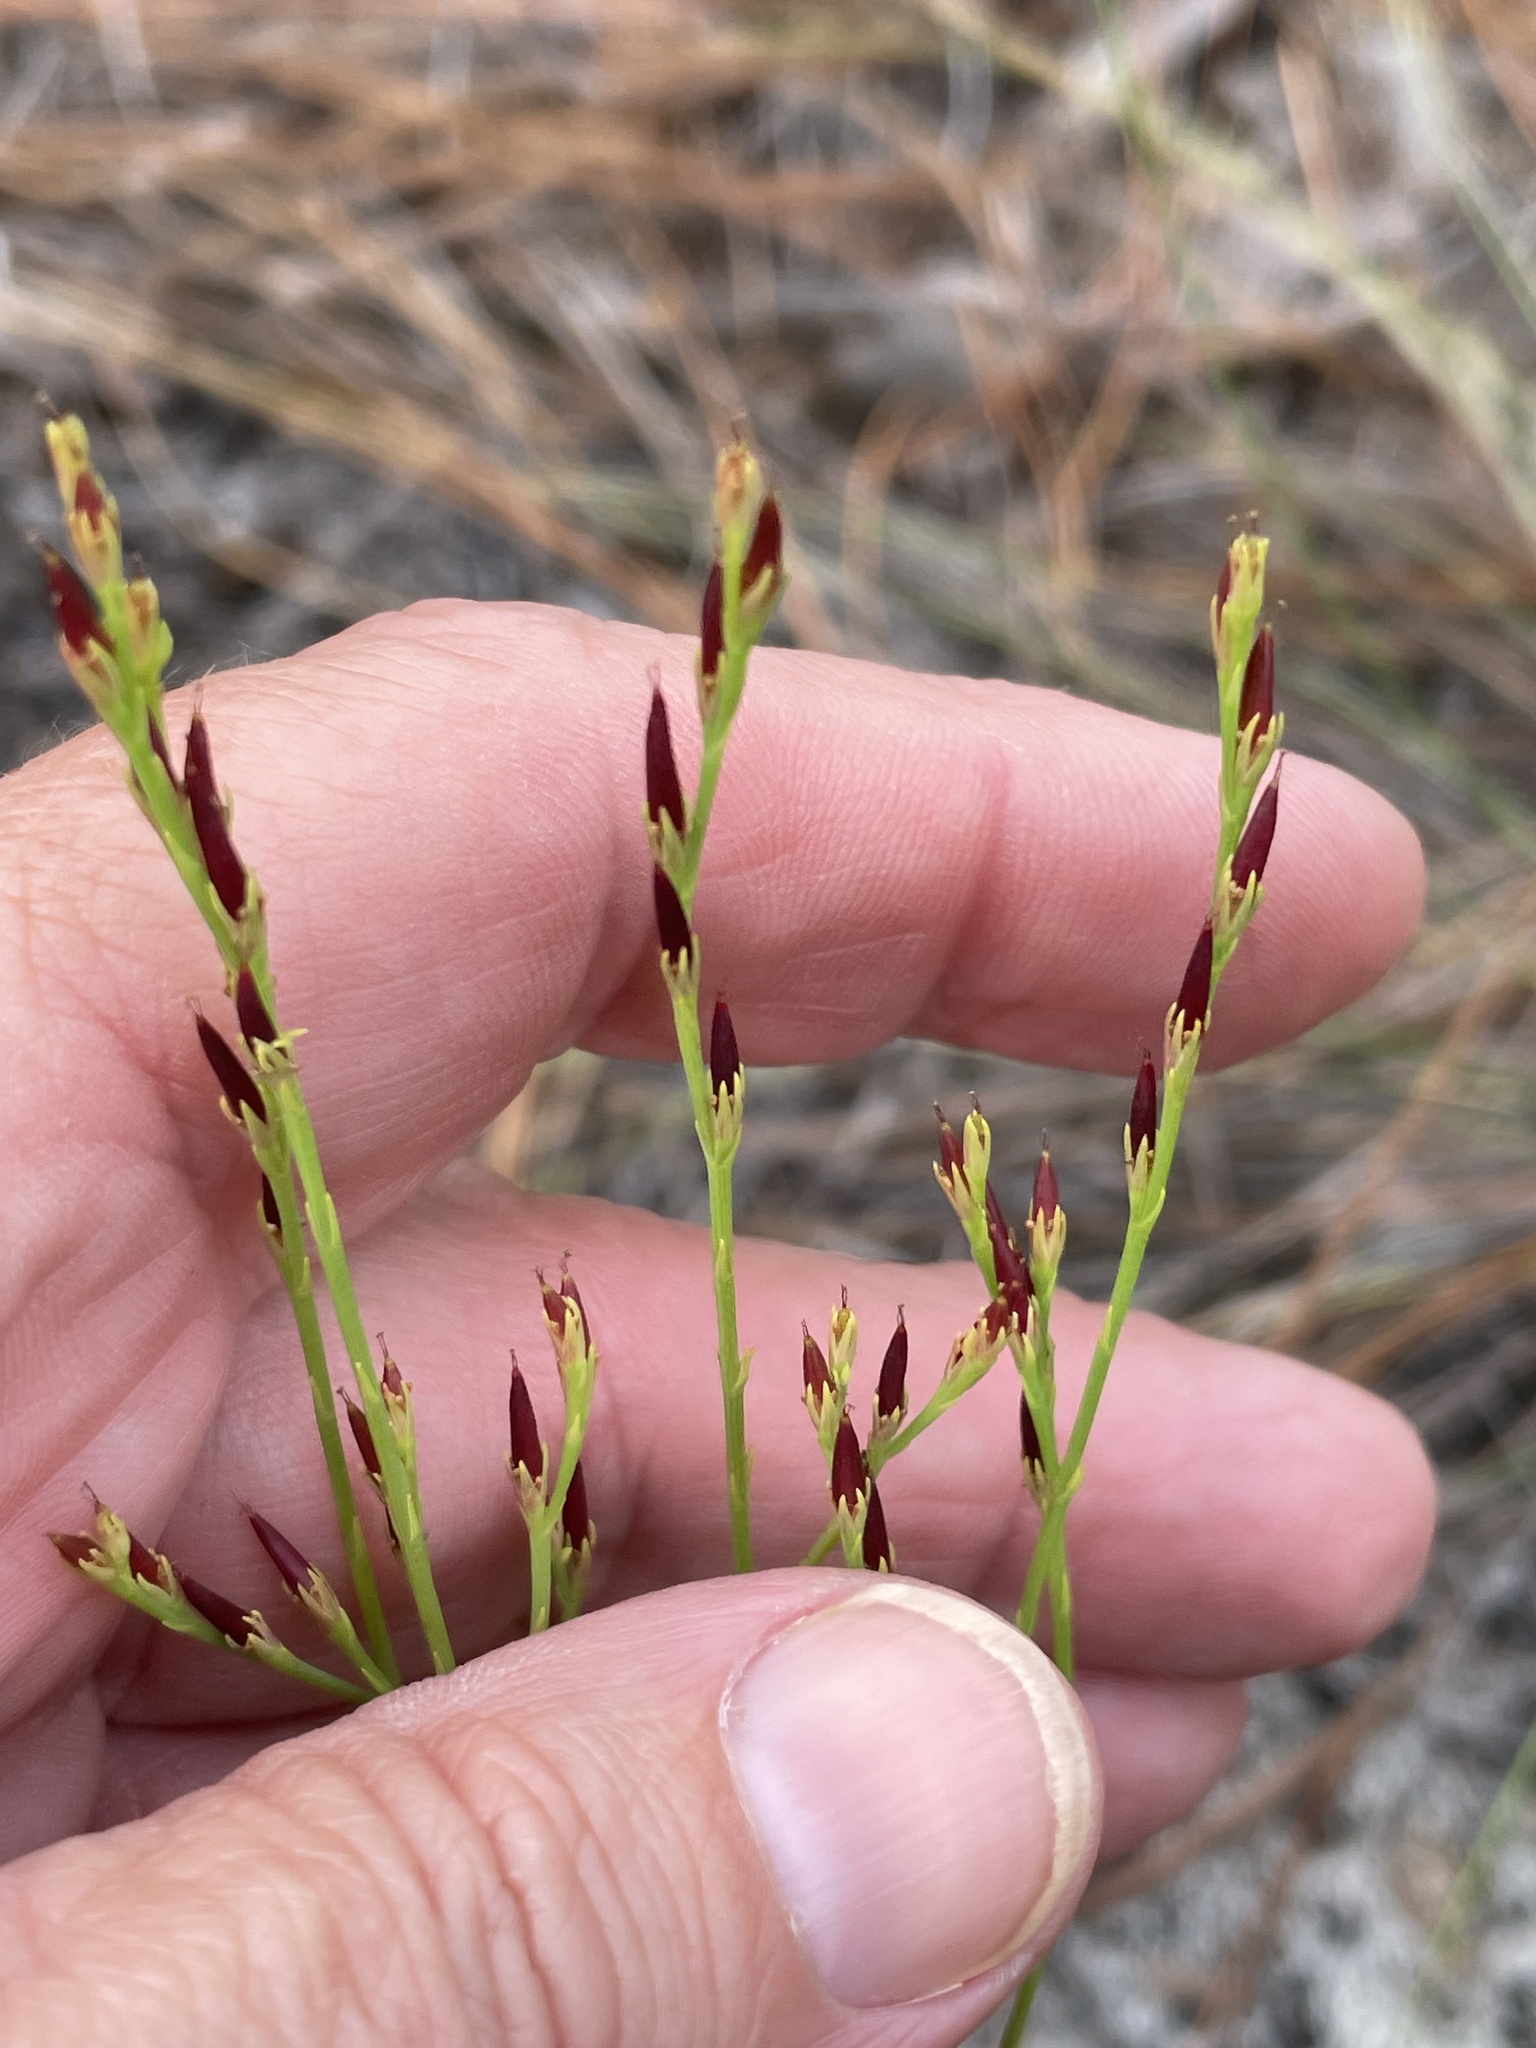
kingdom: Plantae
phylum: Tracheophyta
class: Magnoliopsida
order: Malpighiales
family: Hypericaceae
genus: Hypericum
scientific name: Hypericum gentianoides
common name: Gentian-leaved st. john's-wort
